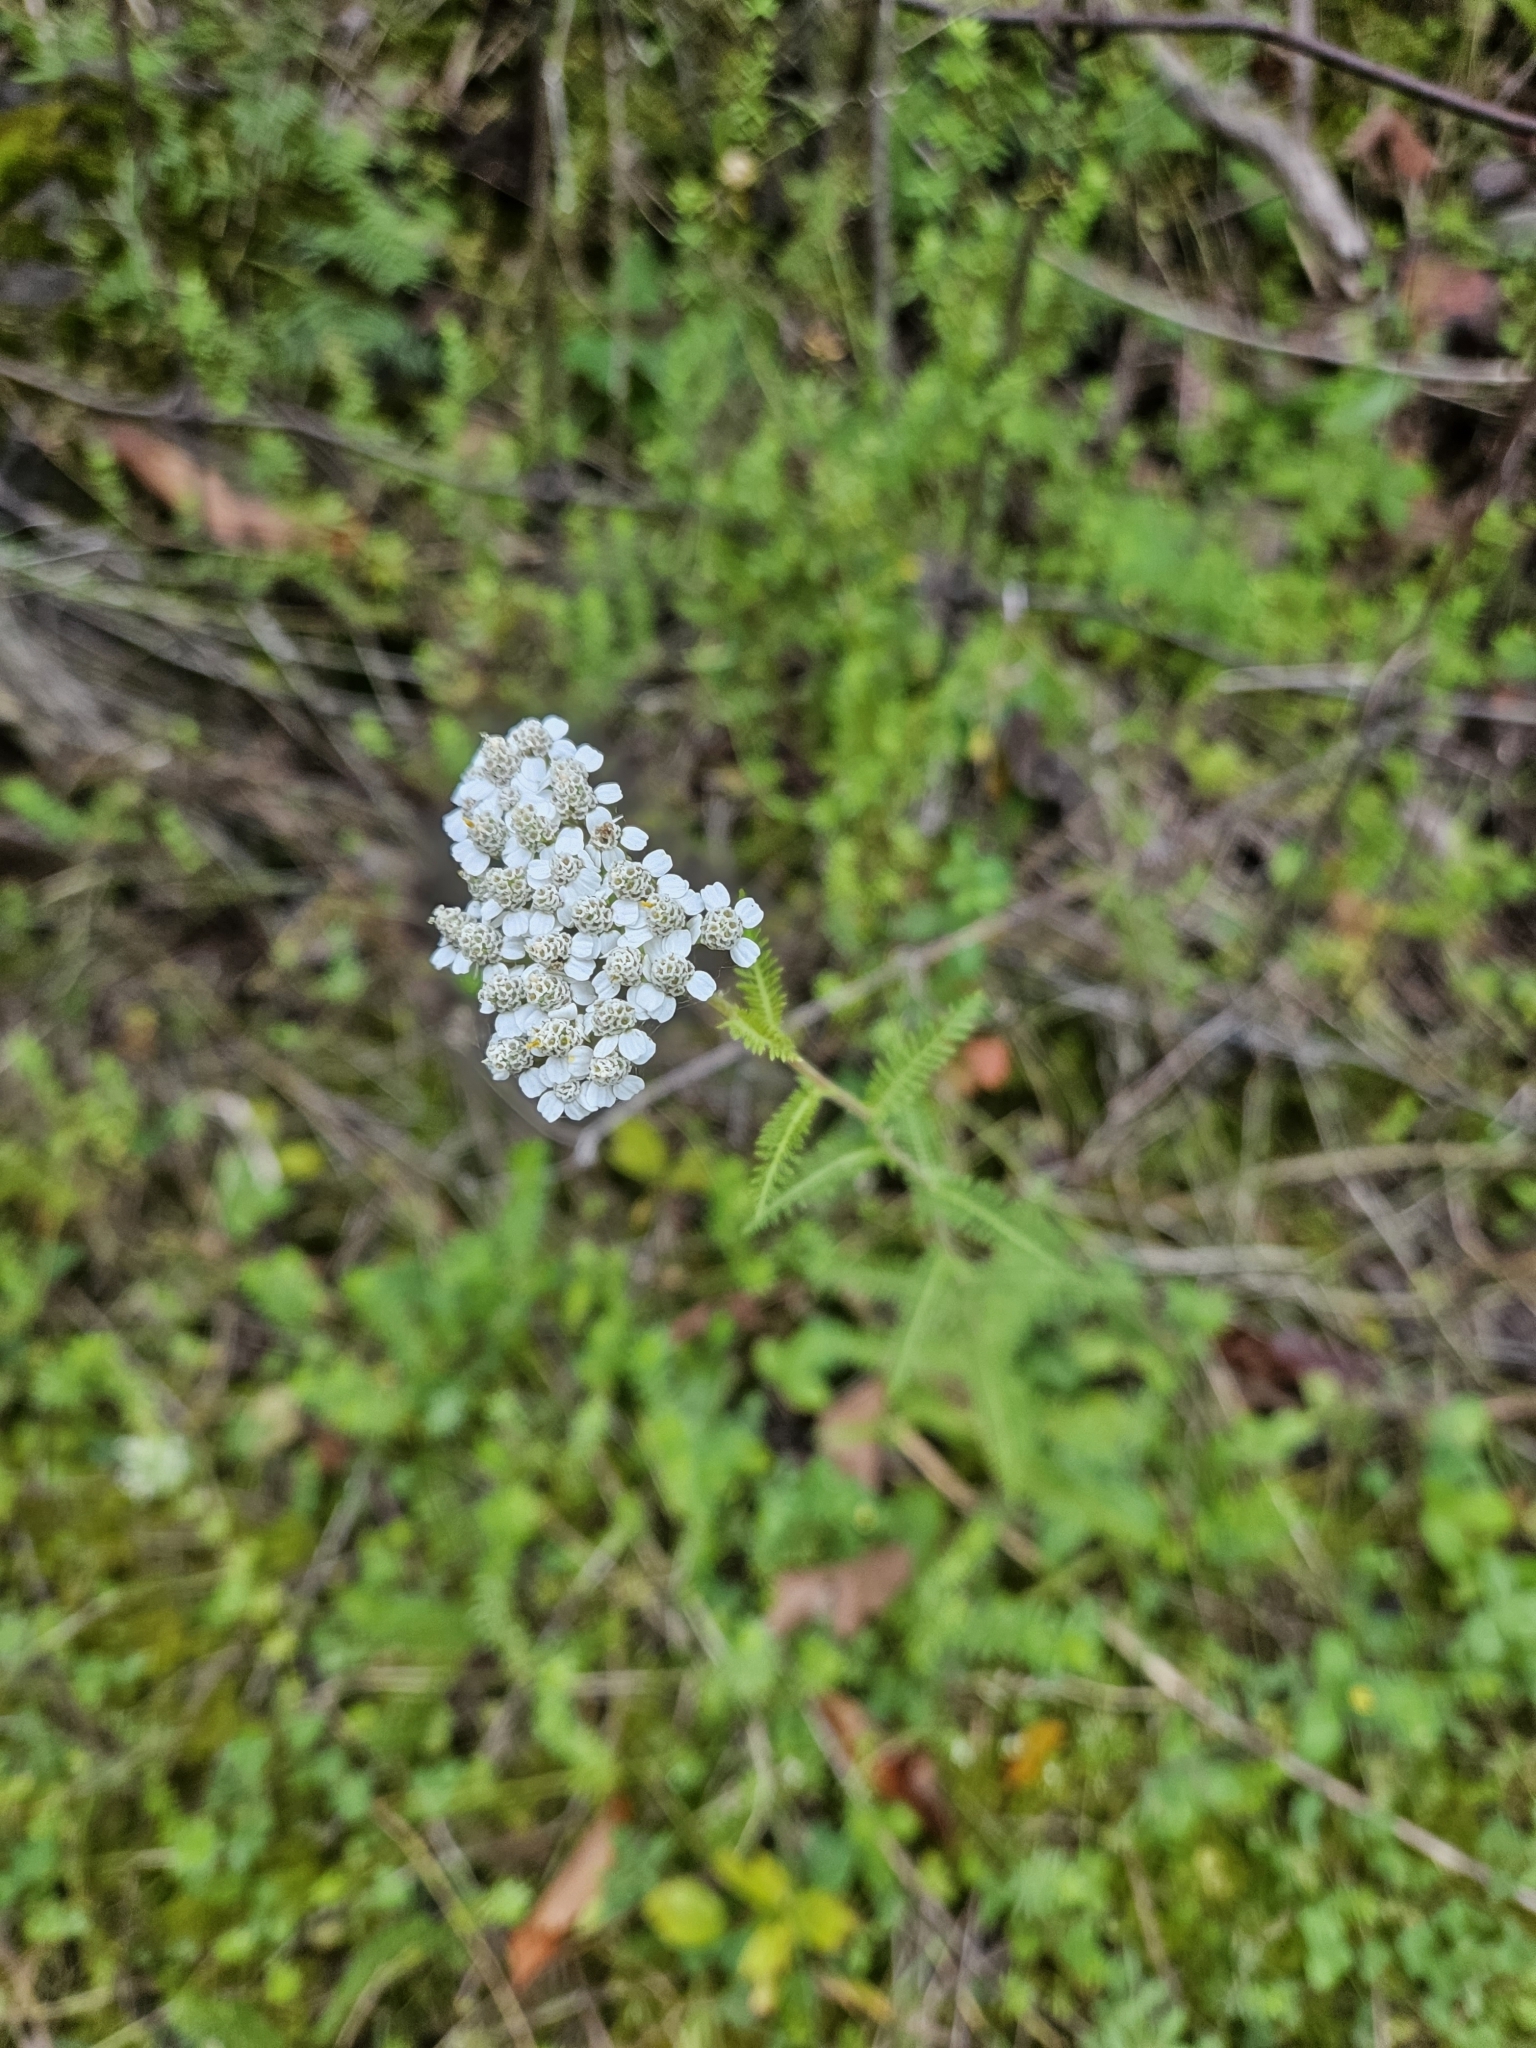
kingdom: Plantae
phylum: Tracheophyta
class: Magnoliopsida
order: Asterales
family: Asteraceae
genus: Achillea
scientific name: Achillea millefolium
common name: Yarrow
